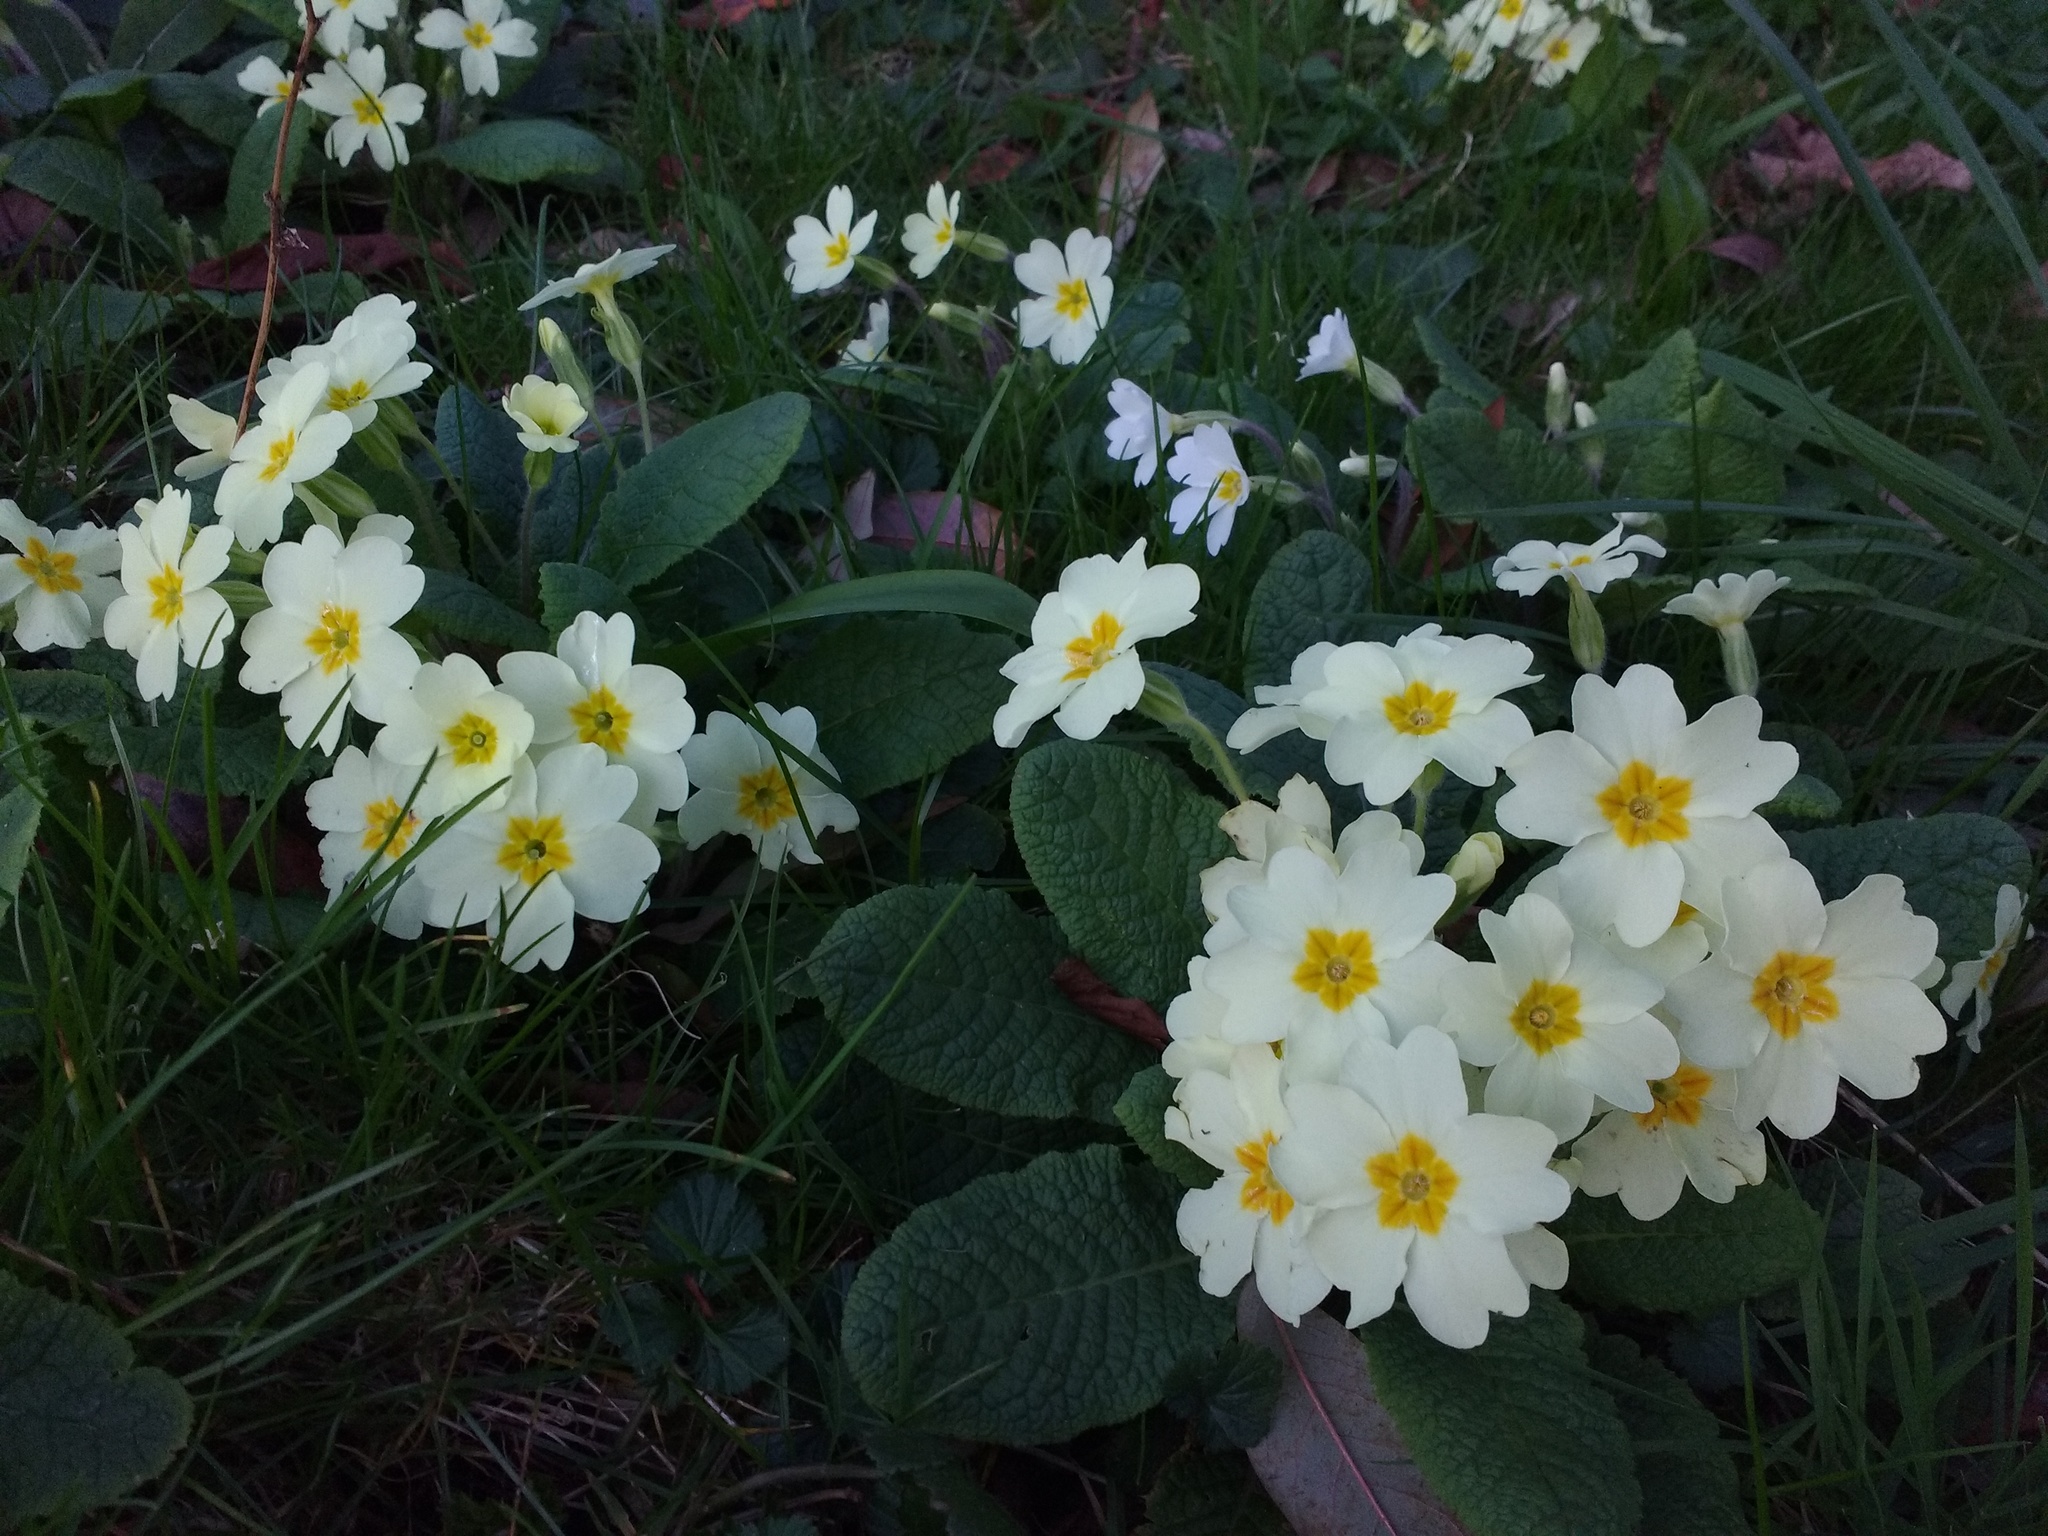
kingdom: Plantae
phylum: Tracheophyta
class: Magnoliopsida
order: Ericales
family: Primulaceae
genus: Primula
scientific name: Primula vulgaris
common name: Primrose
